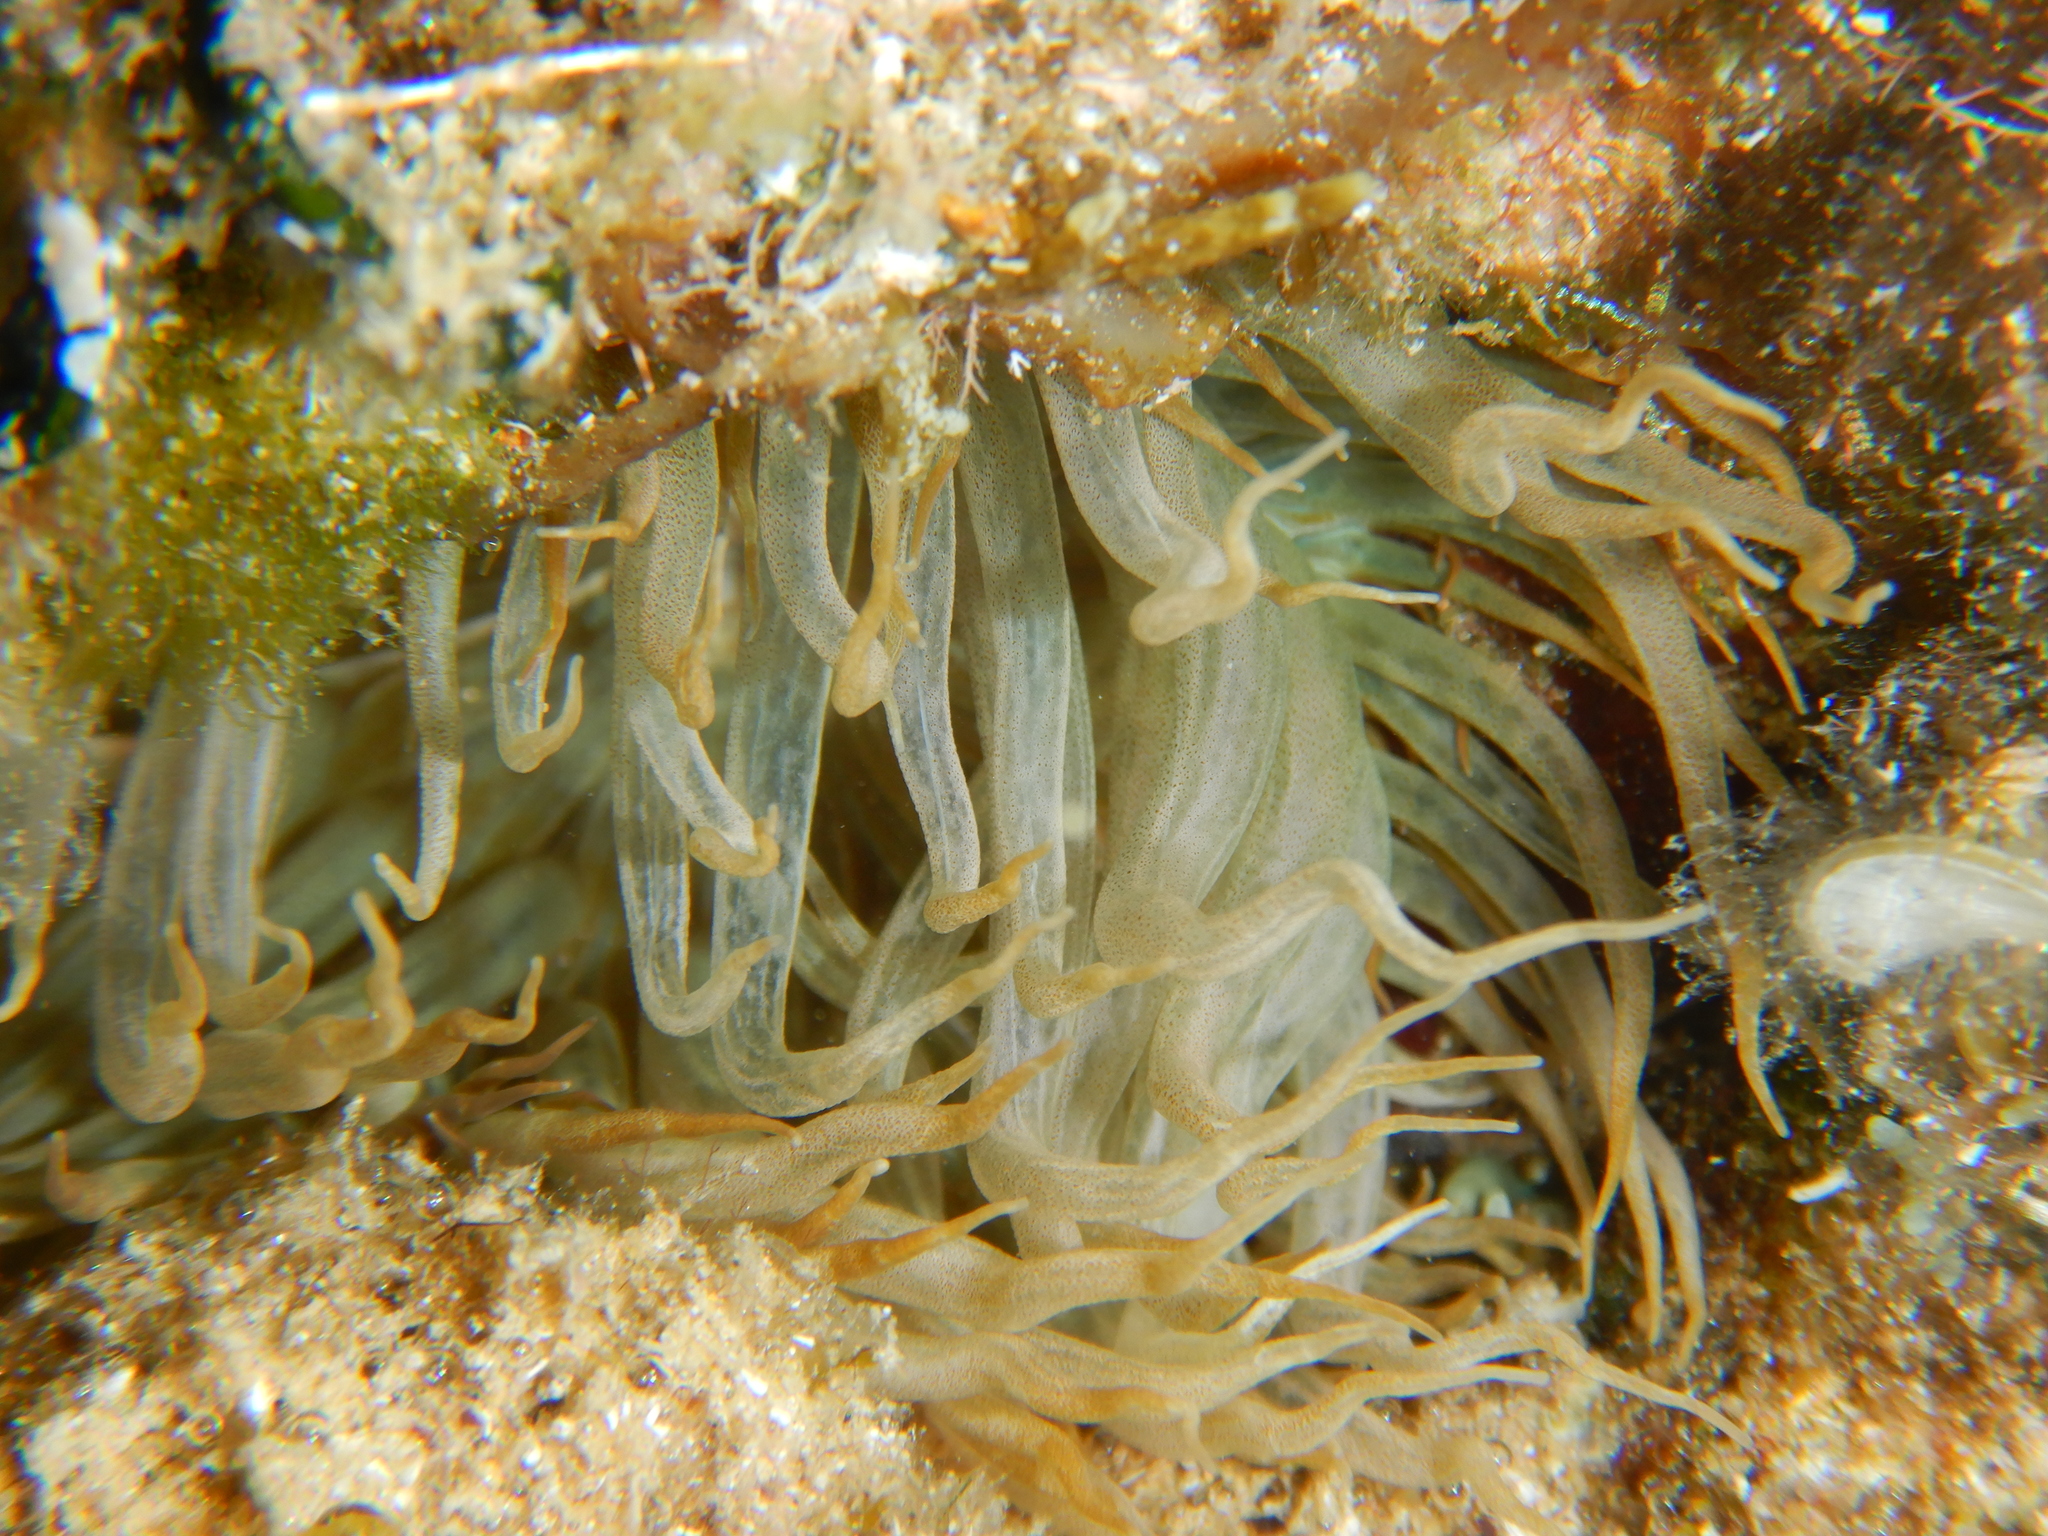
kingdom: Animalia
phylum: Cnidaria
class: Anthozoa
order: Actiniaria
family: Aiptasiidae
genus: Aiptasia
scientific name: Aiptasia mutabilis
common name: Trumpet anemone
